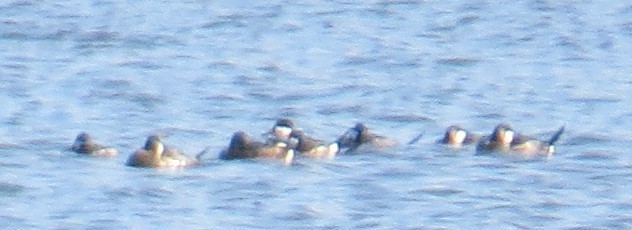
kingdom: Animalia
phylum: Chordata
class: Aves
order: Anseriformes
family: Anatidae
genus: Oxyura
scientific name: Oxyura jamaicensis
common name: Ruddy duck
